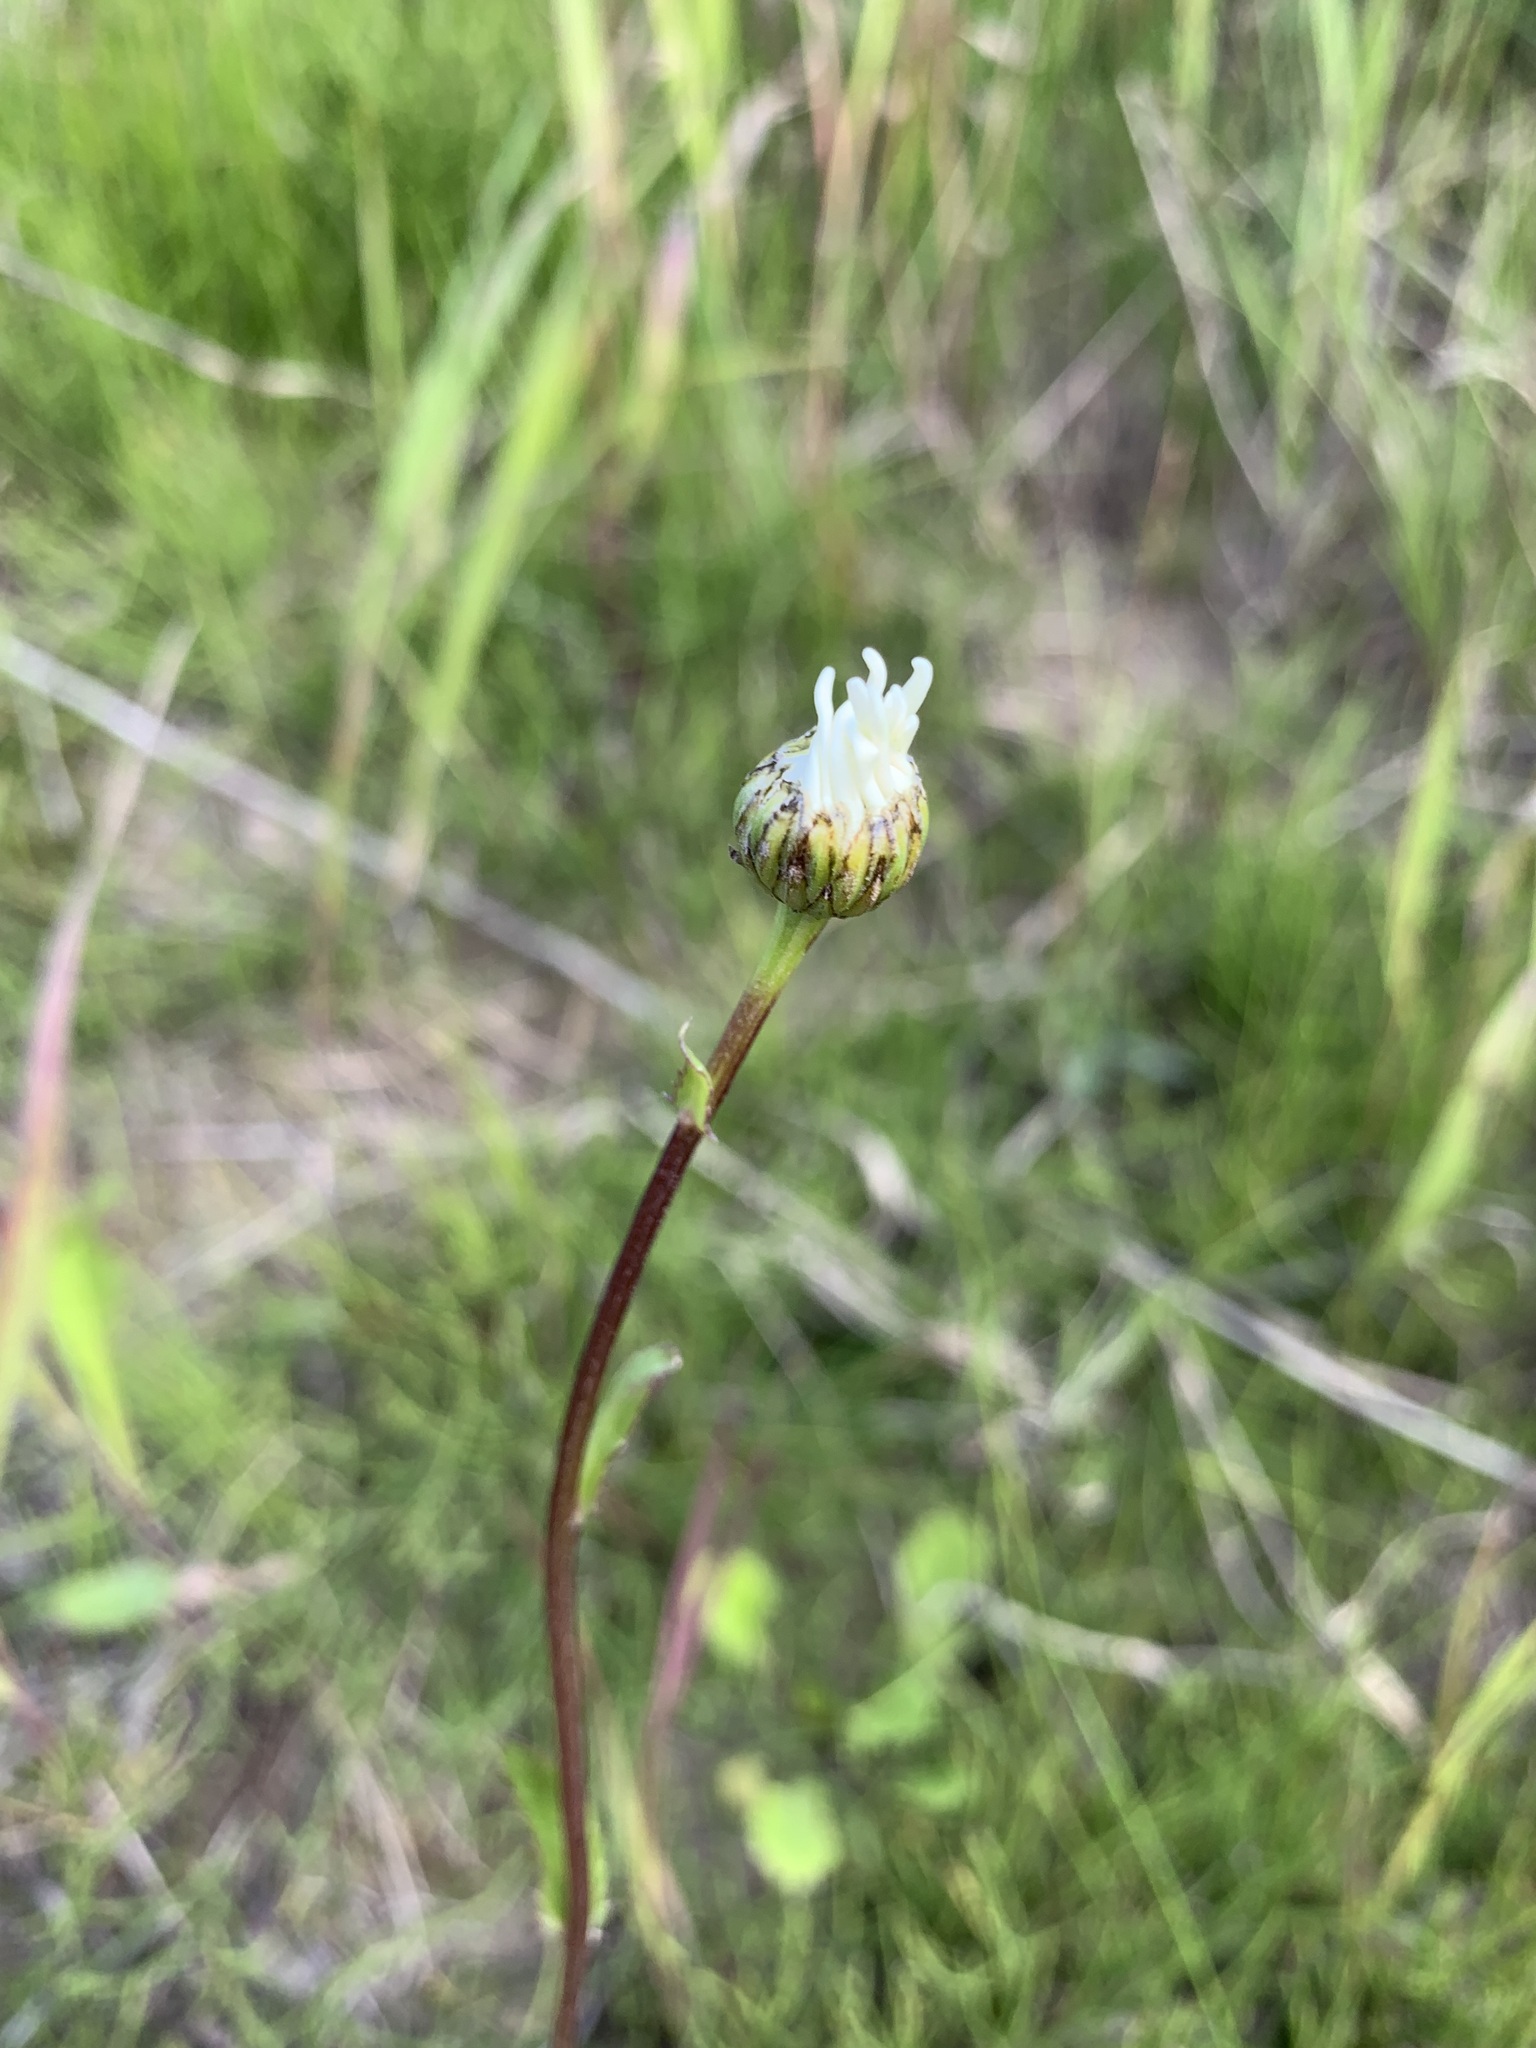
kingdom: Plantae
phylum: Tracheophyta
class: Magnoliopsida
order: Asterales
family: Asteraceae
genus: Leucanthemum
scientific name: Leucanthemum ircutianum
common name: Daisy
